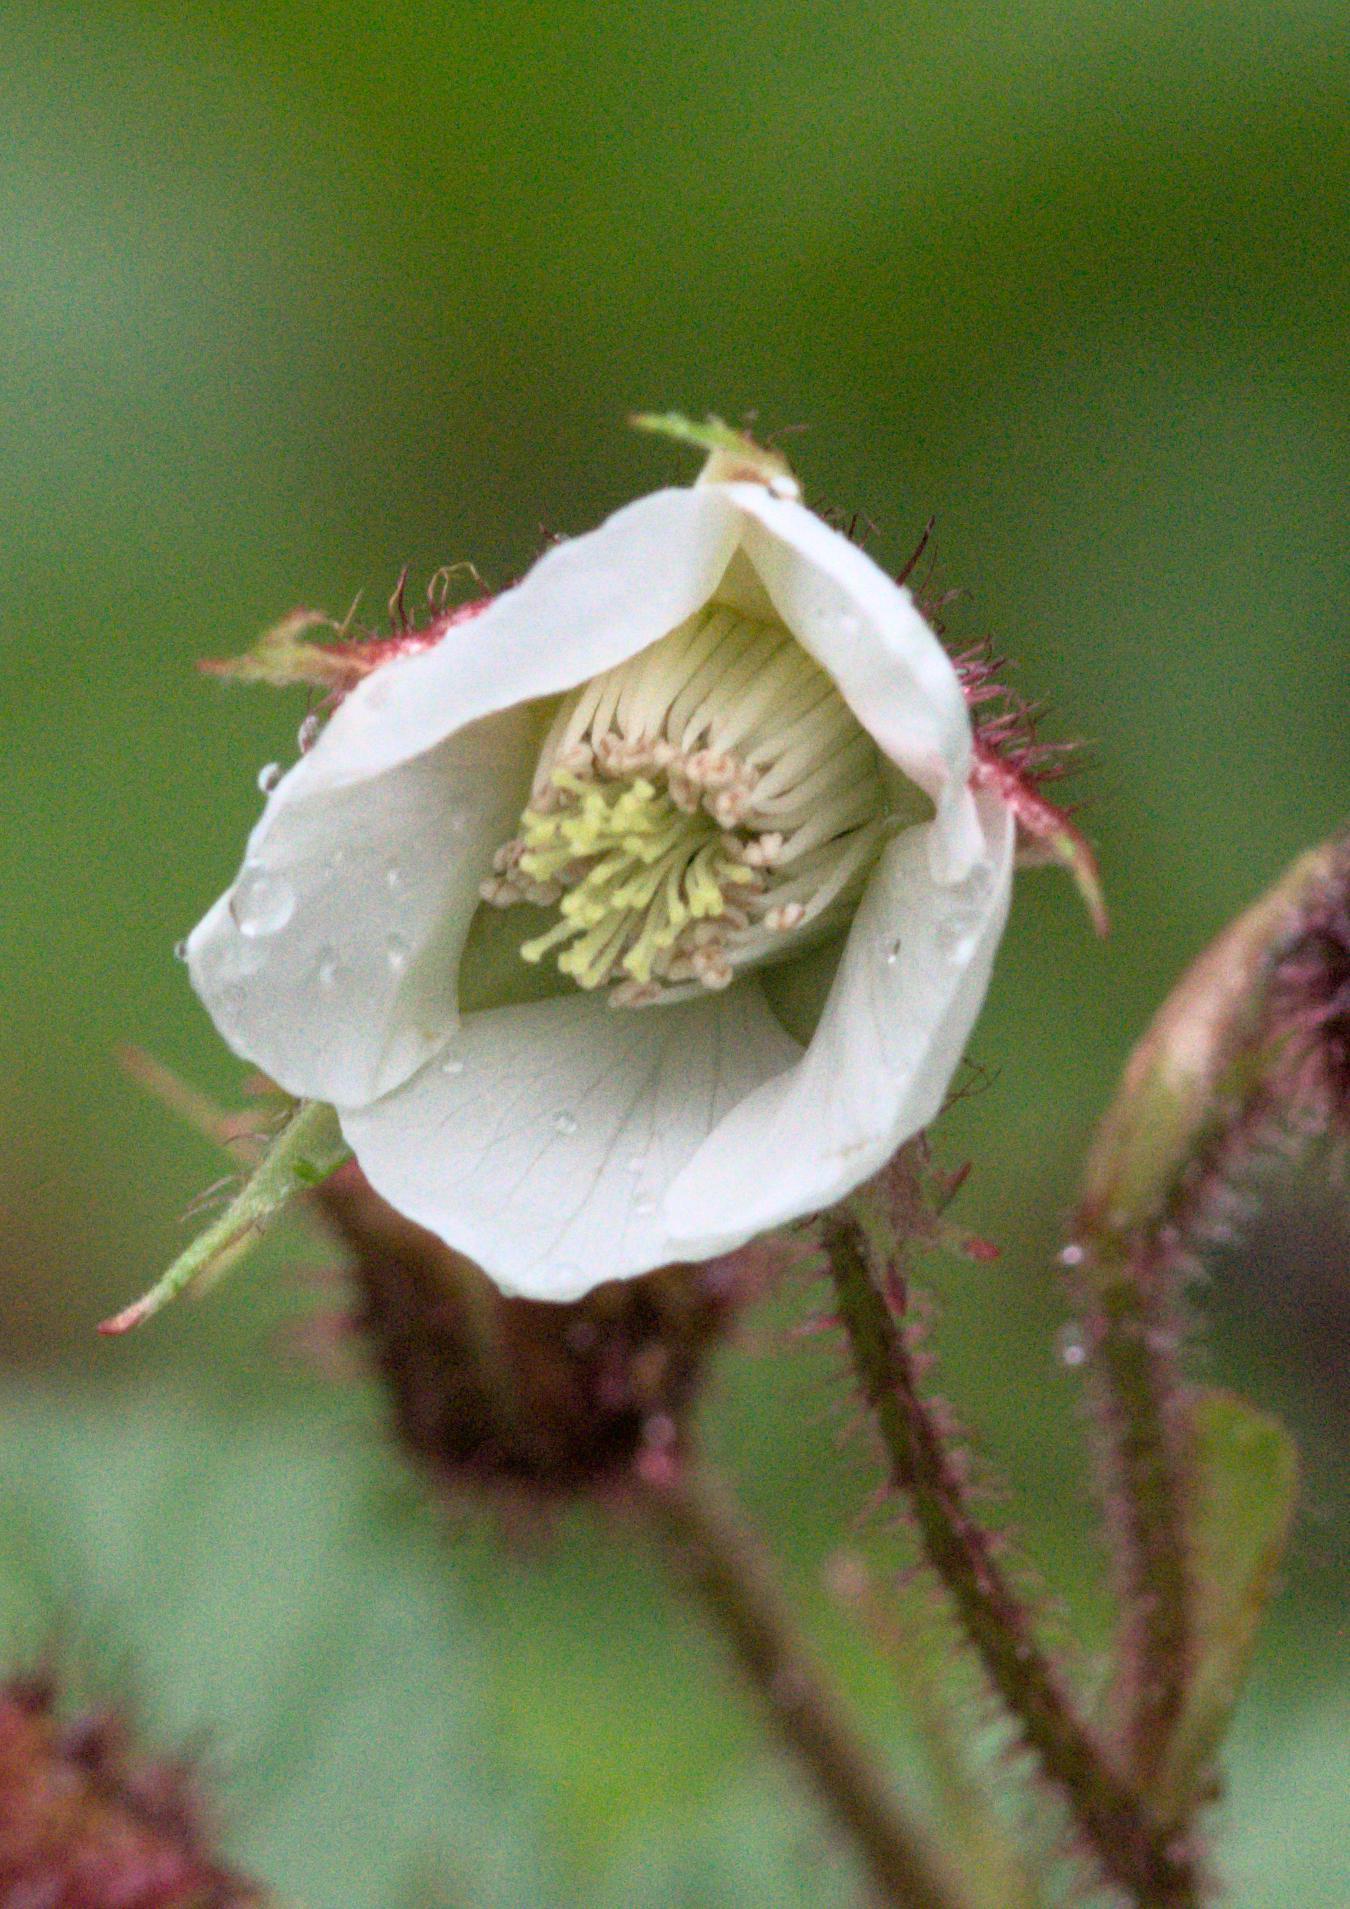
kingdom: Plantae
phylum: Tracheophyta
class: Magnoliopsida
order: Rosales
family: Rosaceae
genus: Rubus
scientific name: Rubus nepalensis
